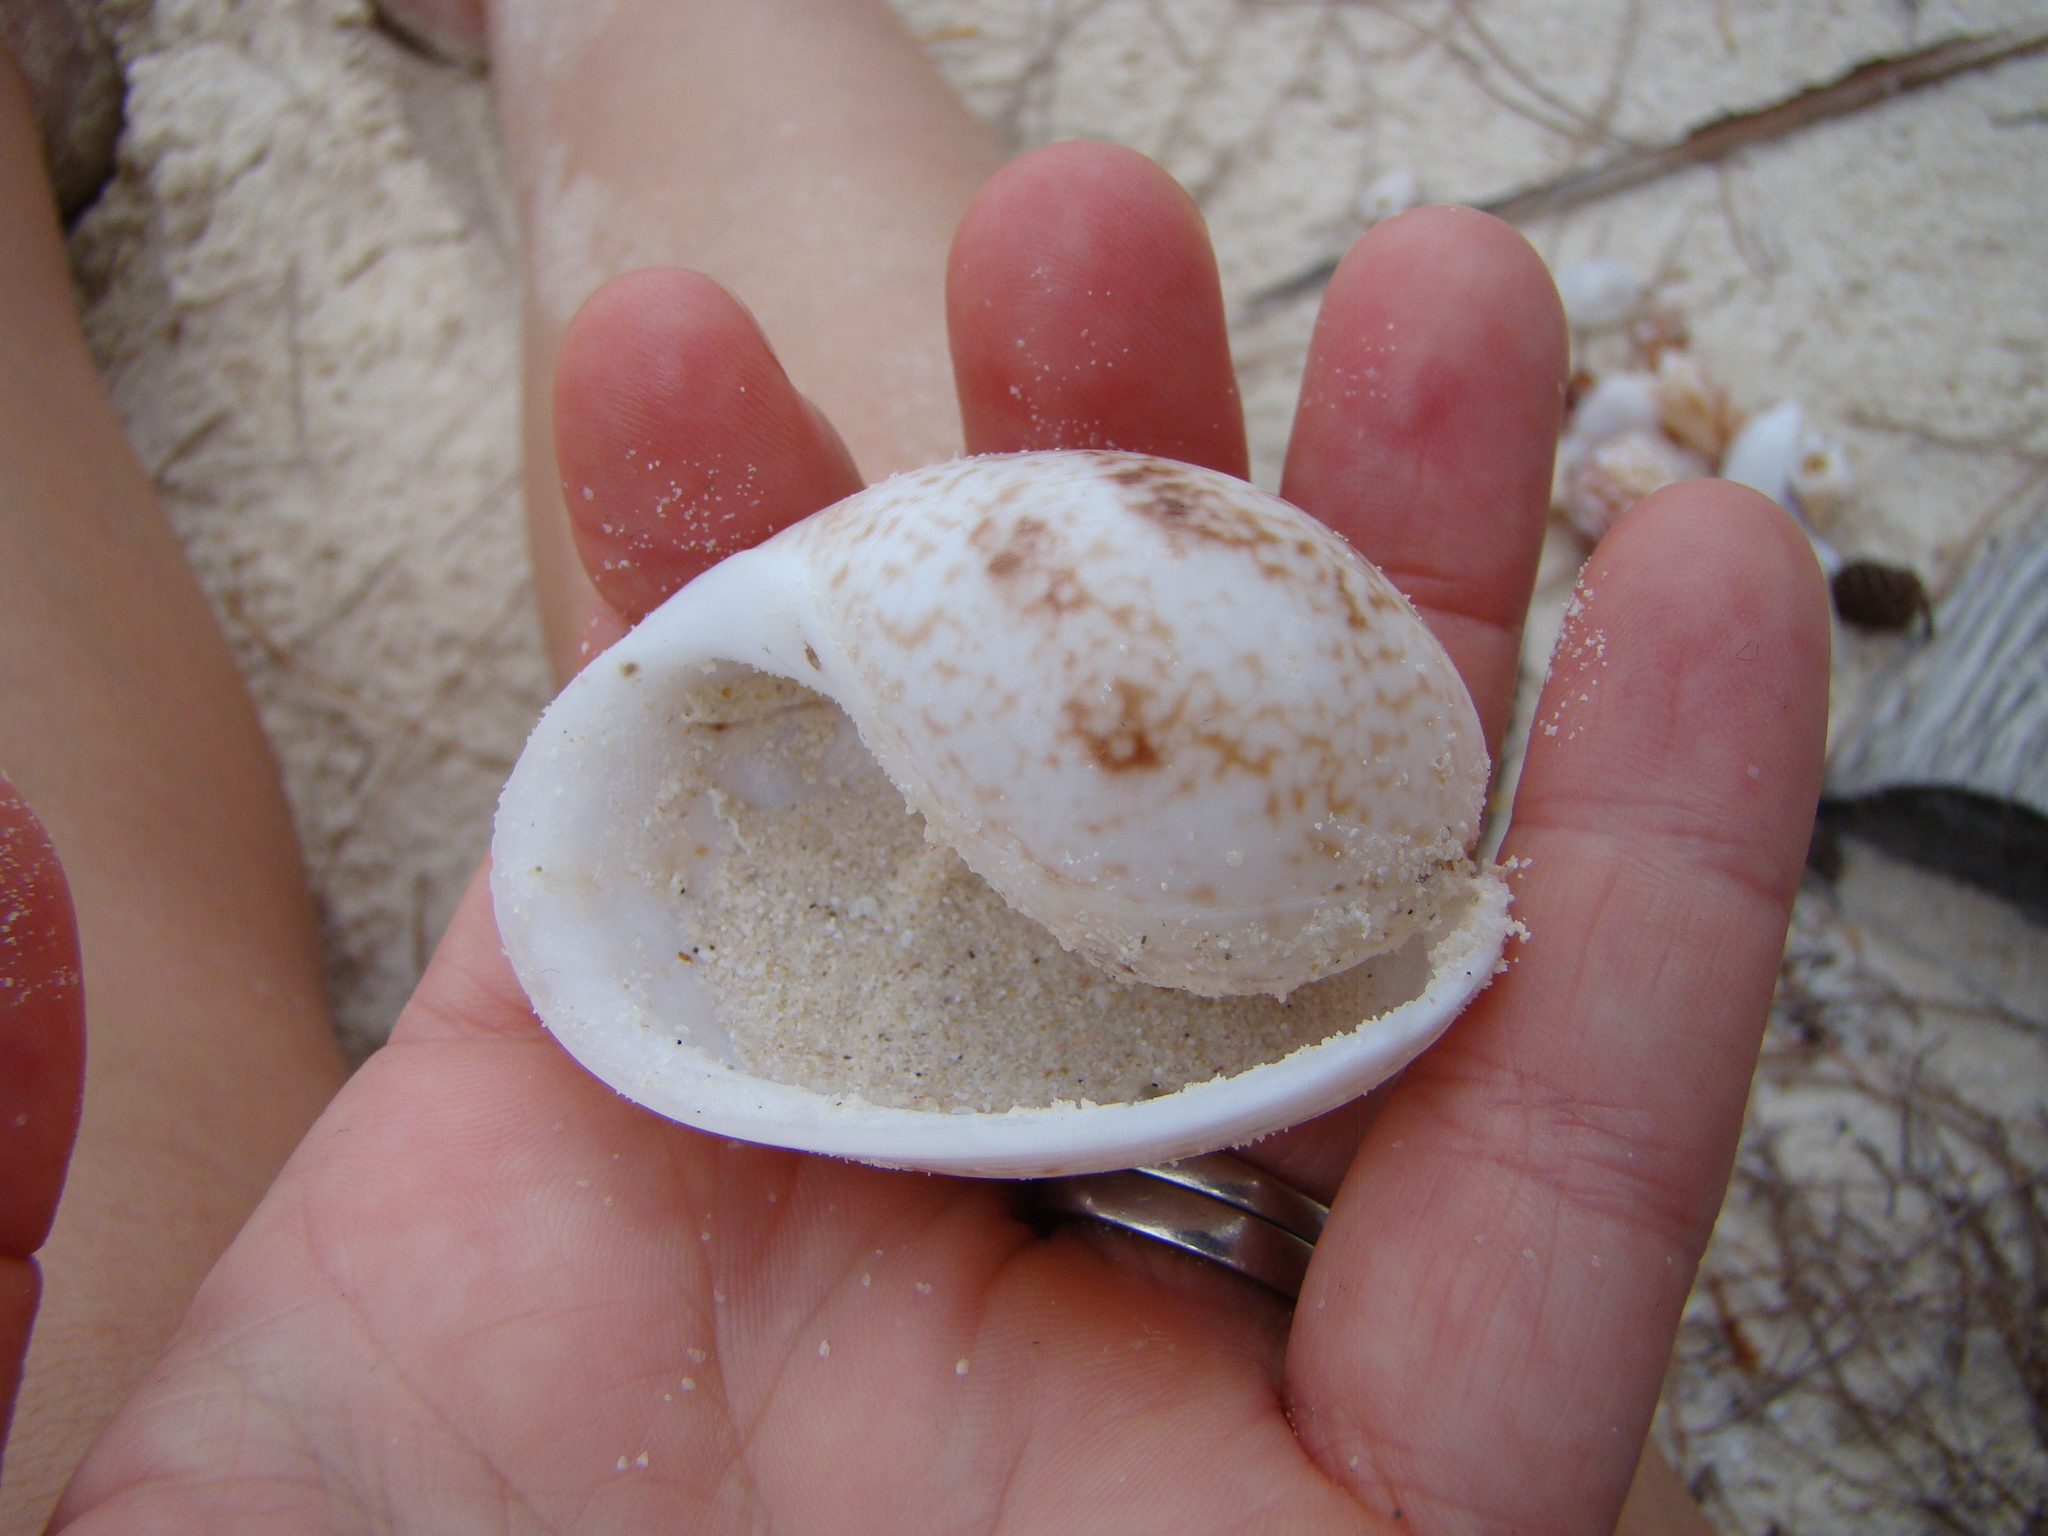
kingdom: Animalia
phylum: Mollusca
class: Gastropoda
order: Cephalaspidea
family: Bullidae
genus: Bulla
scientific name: Bulla ampulla
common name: Ampulle bubble
